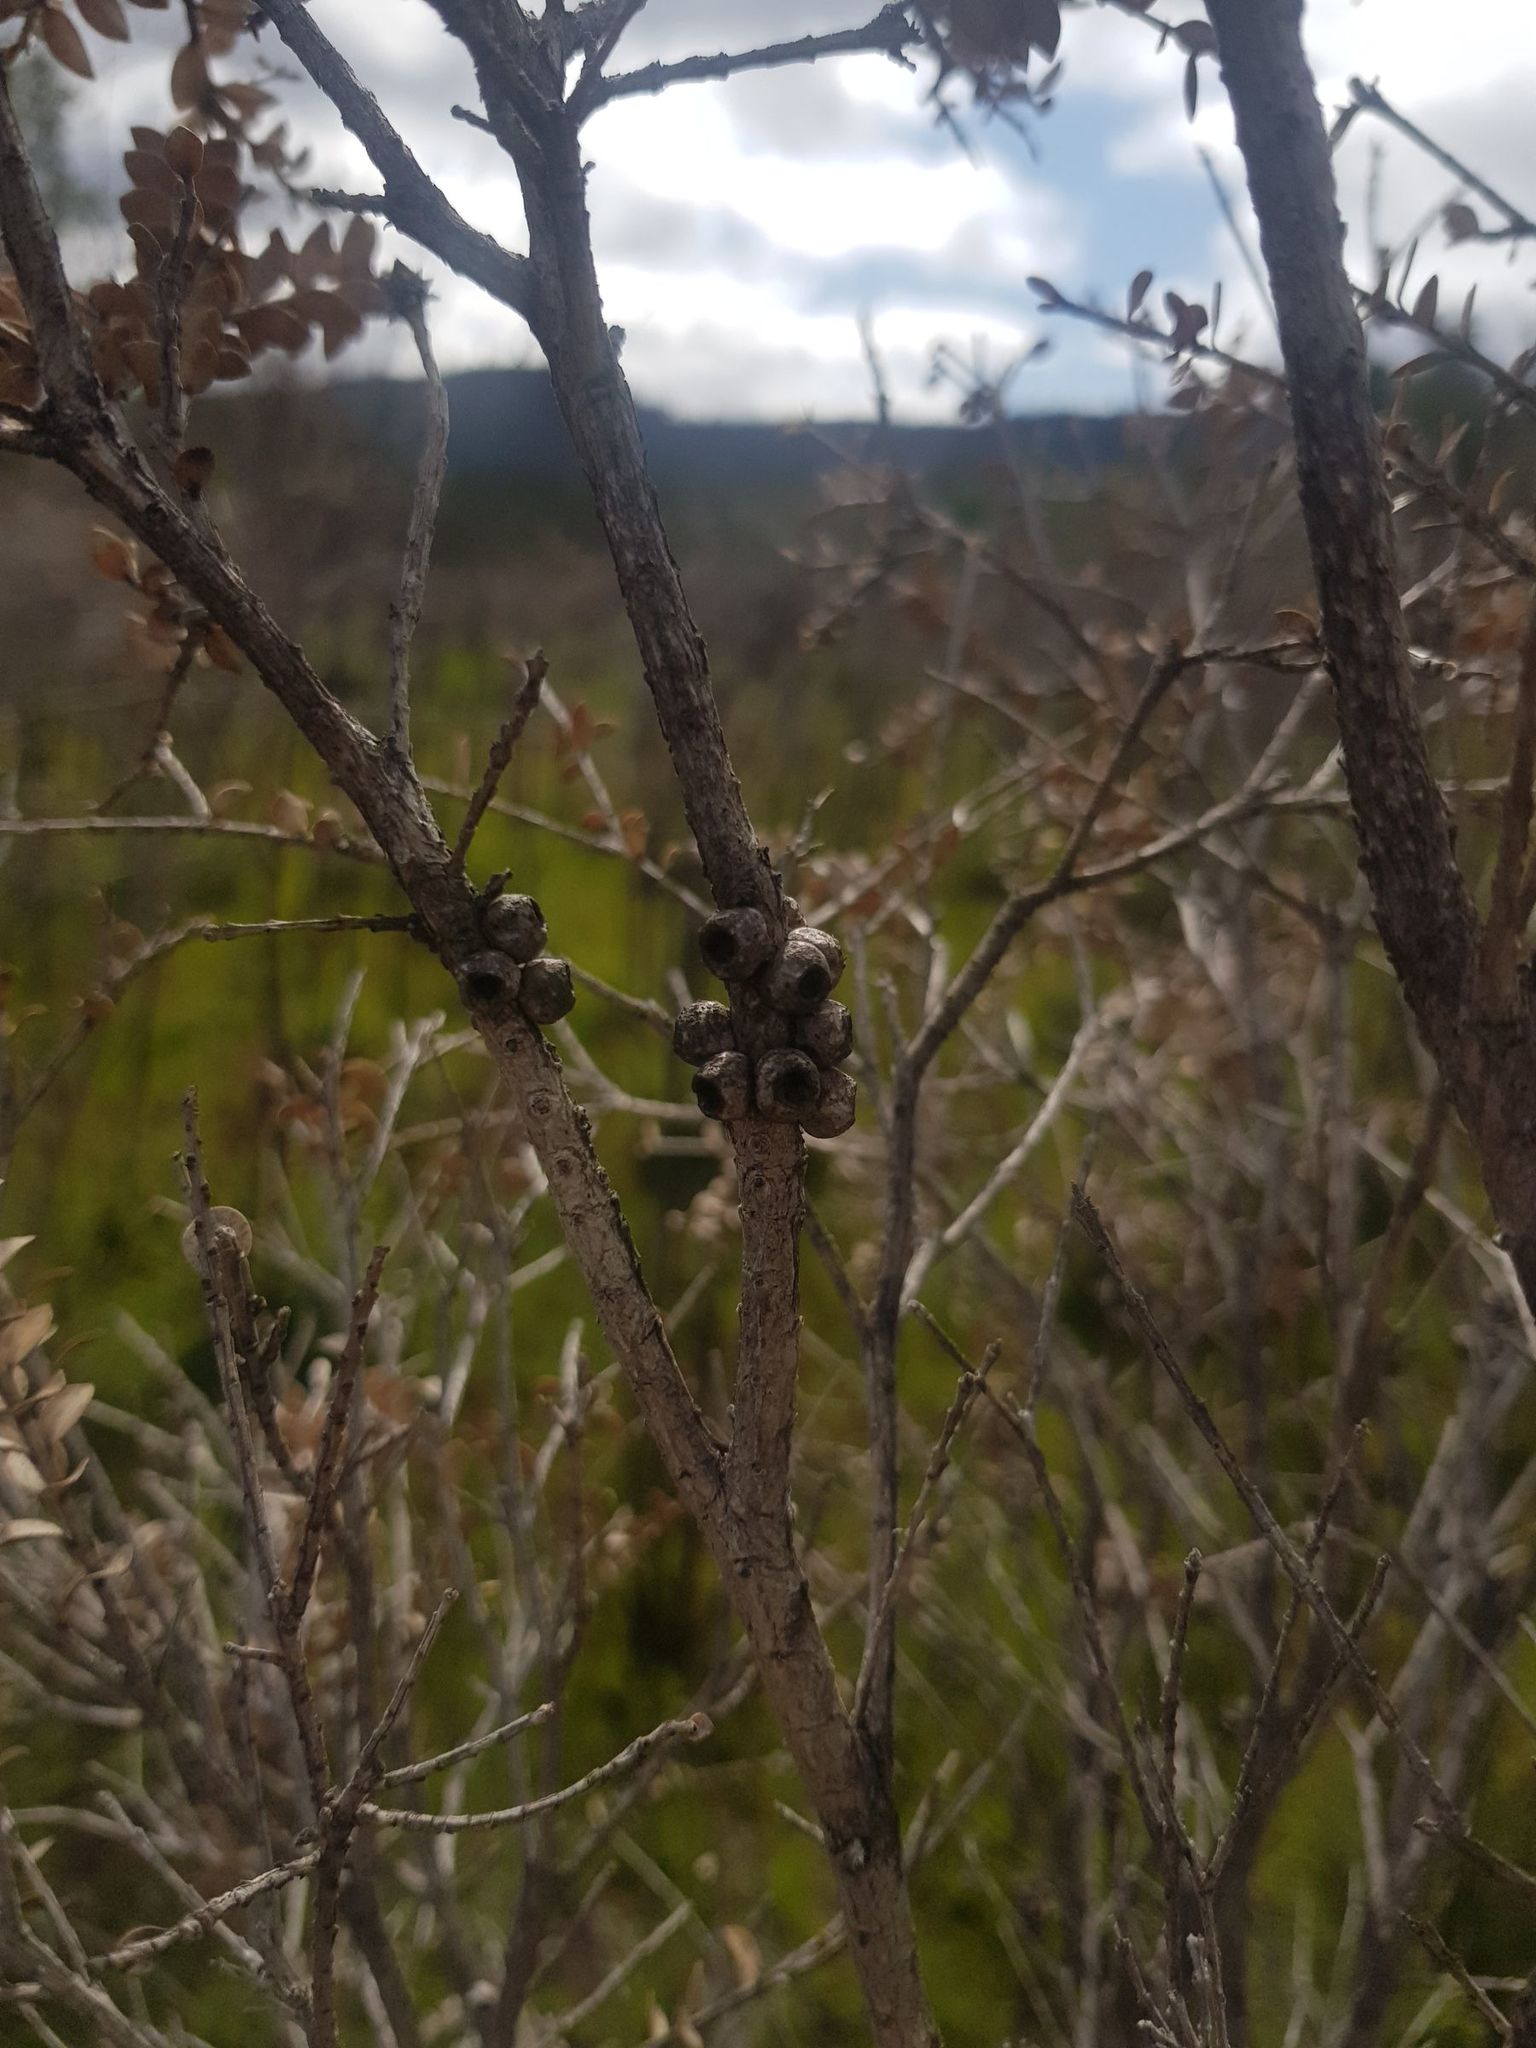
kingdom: Plantae
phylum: Tracheophyta
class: Magnoliopsida
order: Myrtales
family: Myrtaceae
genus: Melaleuca
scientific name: Melaleuca squarrosa
